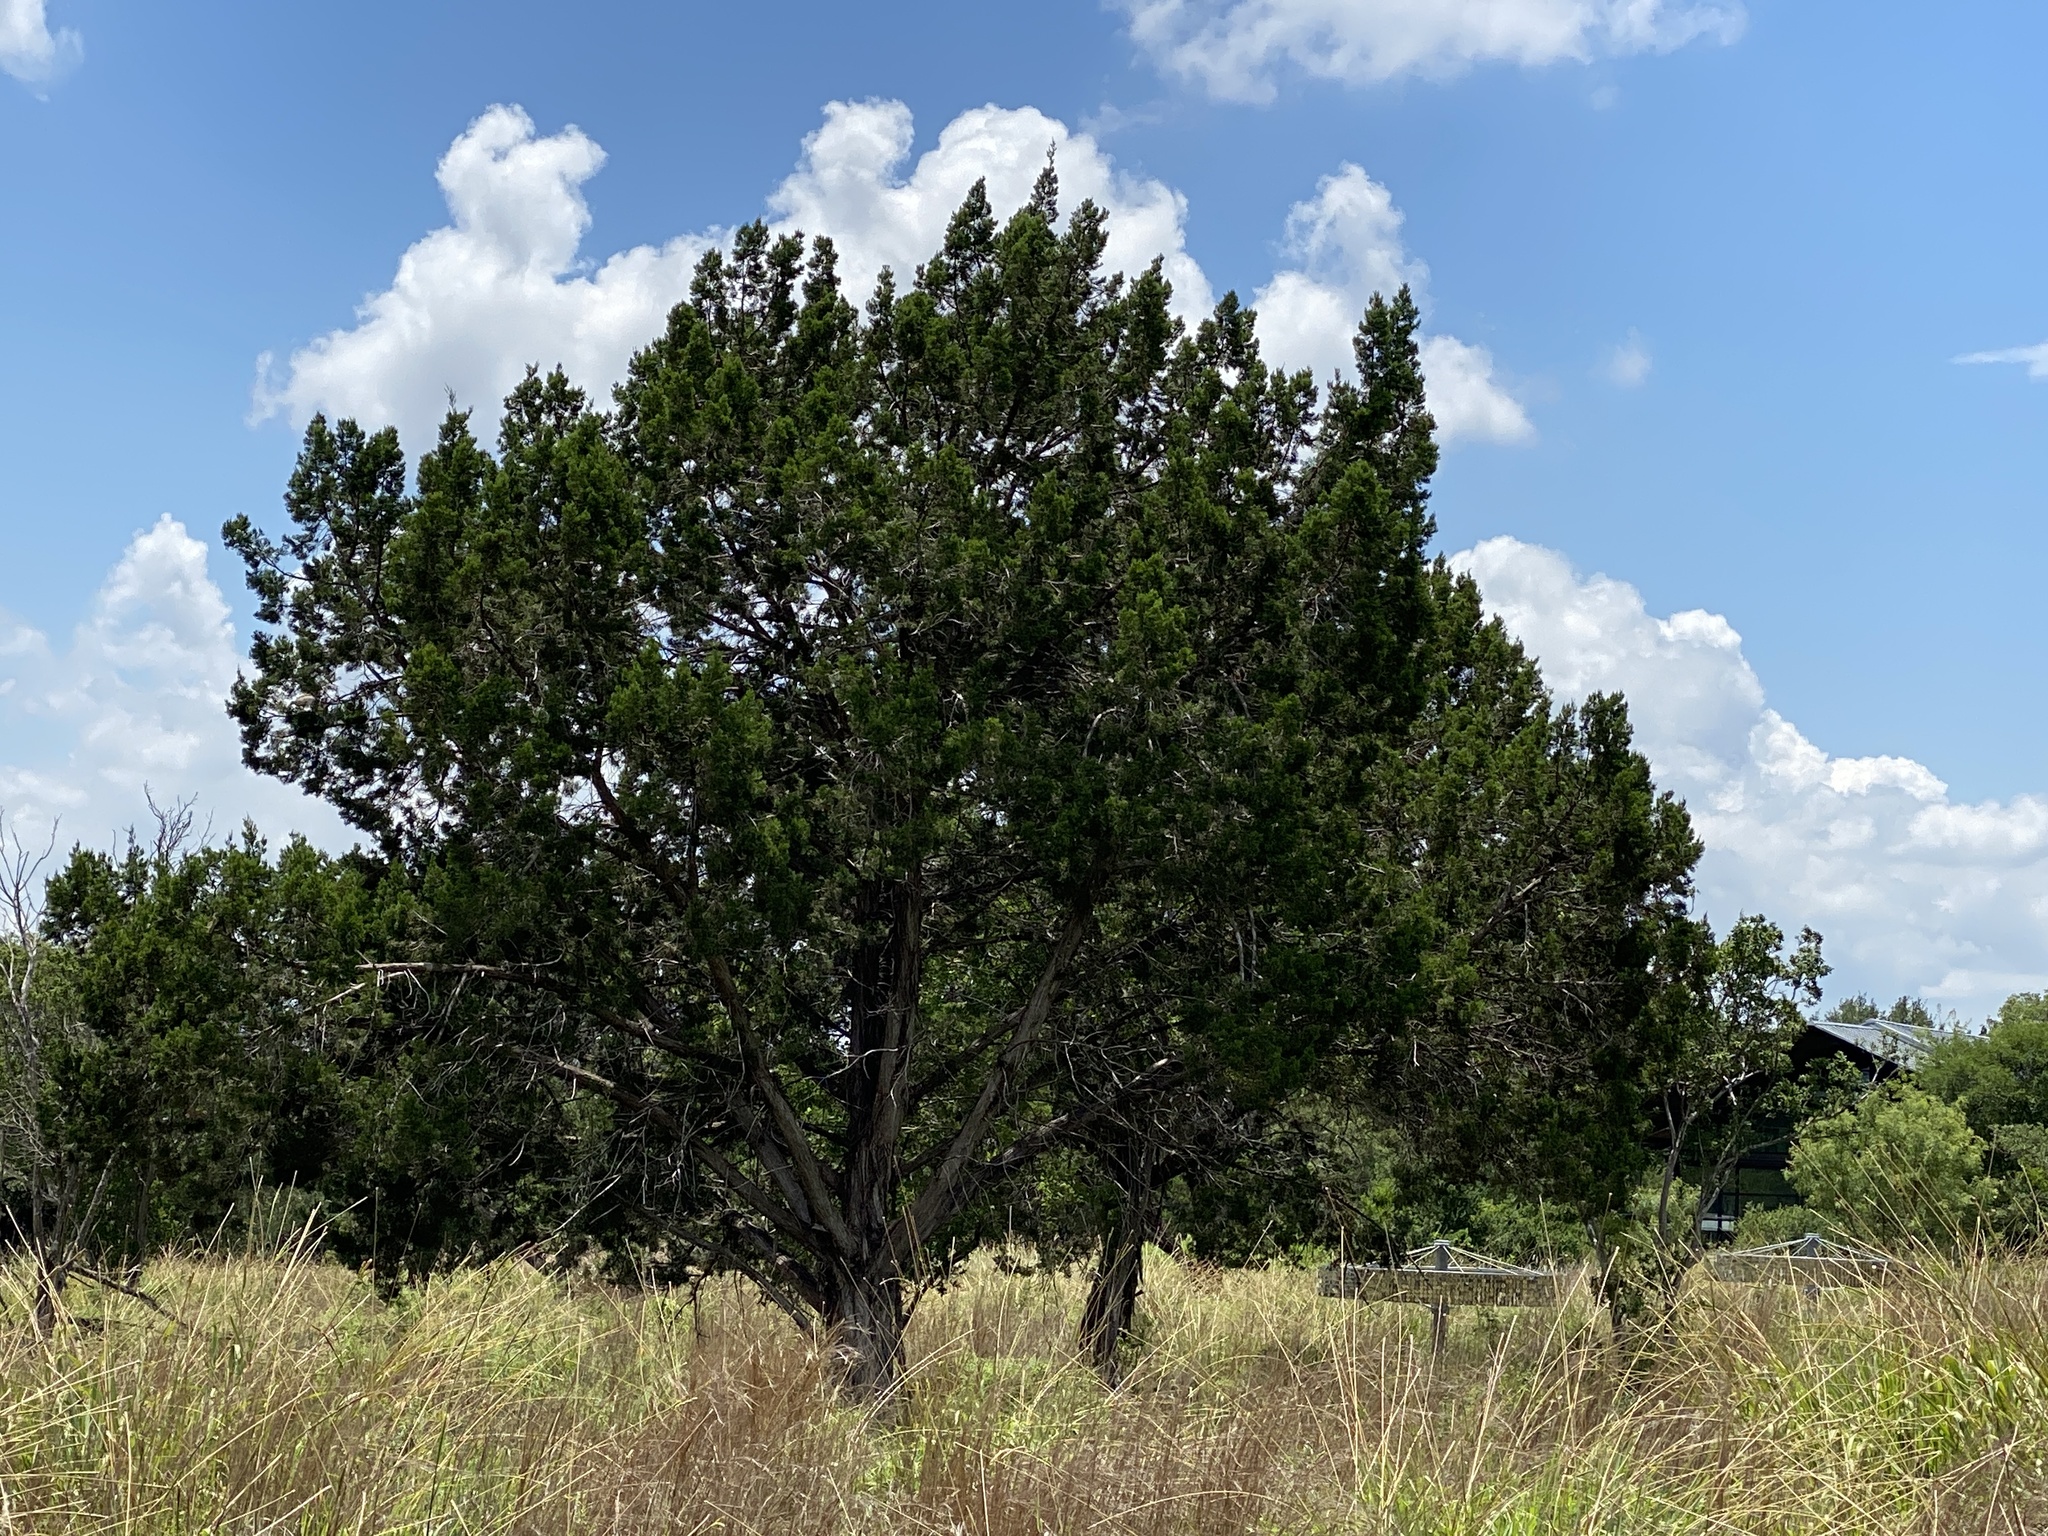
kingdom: Plantae
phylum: Tracheophyta
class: Pinopsida
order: Pinales
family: Cupressaceae
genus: Juniperus
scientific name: Juniperus ashei
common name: Mexican juniper
